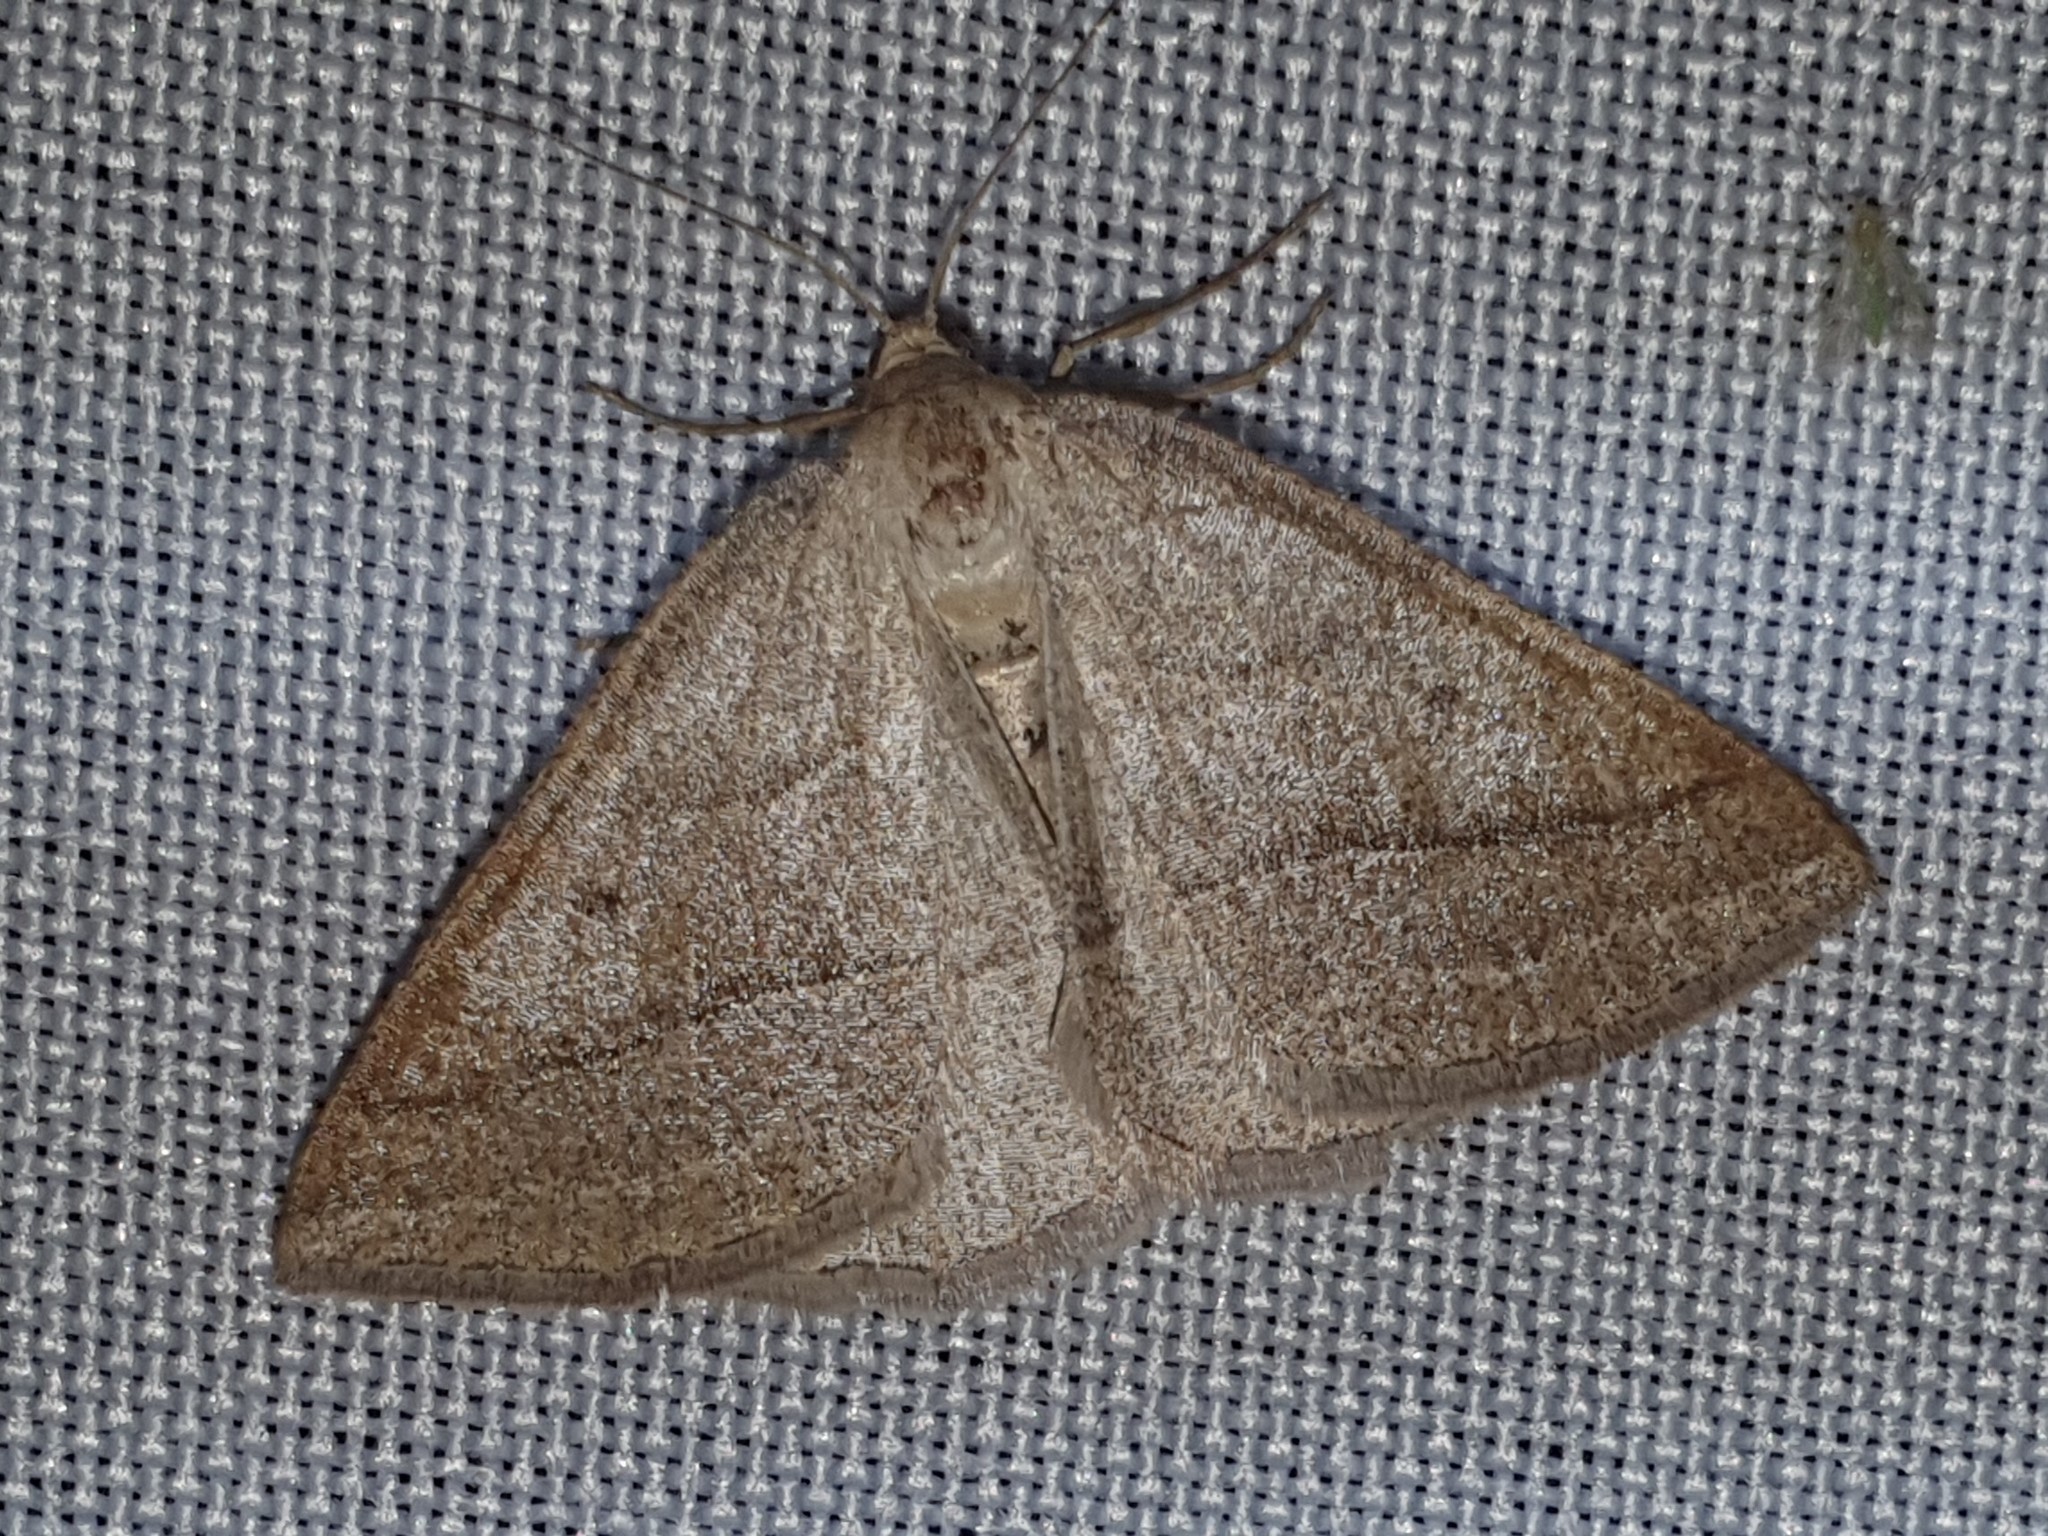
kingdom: Animalia
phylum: Arthropoda
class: Insecta
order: Lepidoptera
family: Pterophoridae
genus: Pterophorus
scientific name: Pterophorus Petrophora chlorosata
